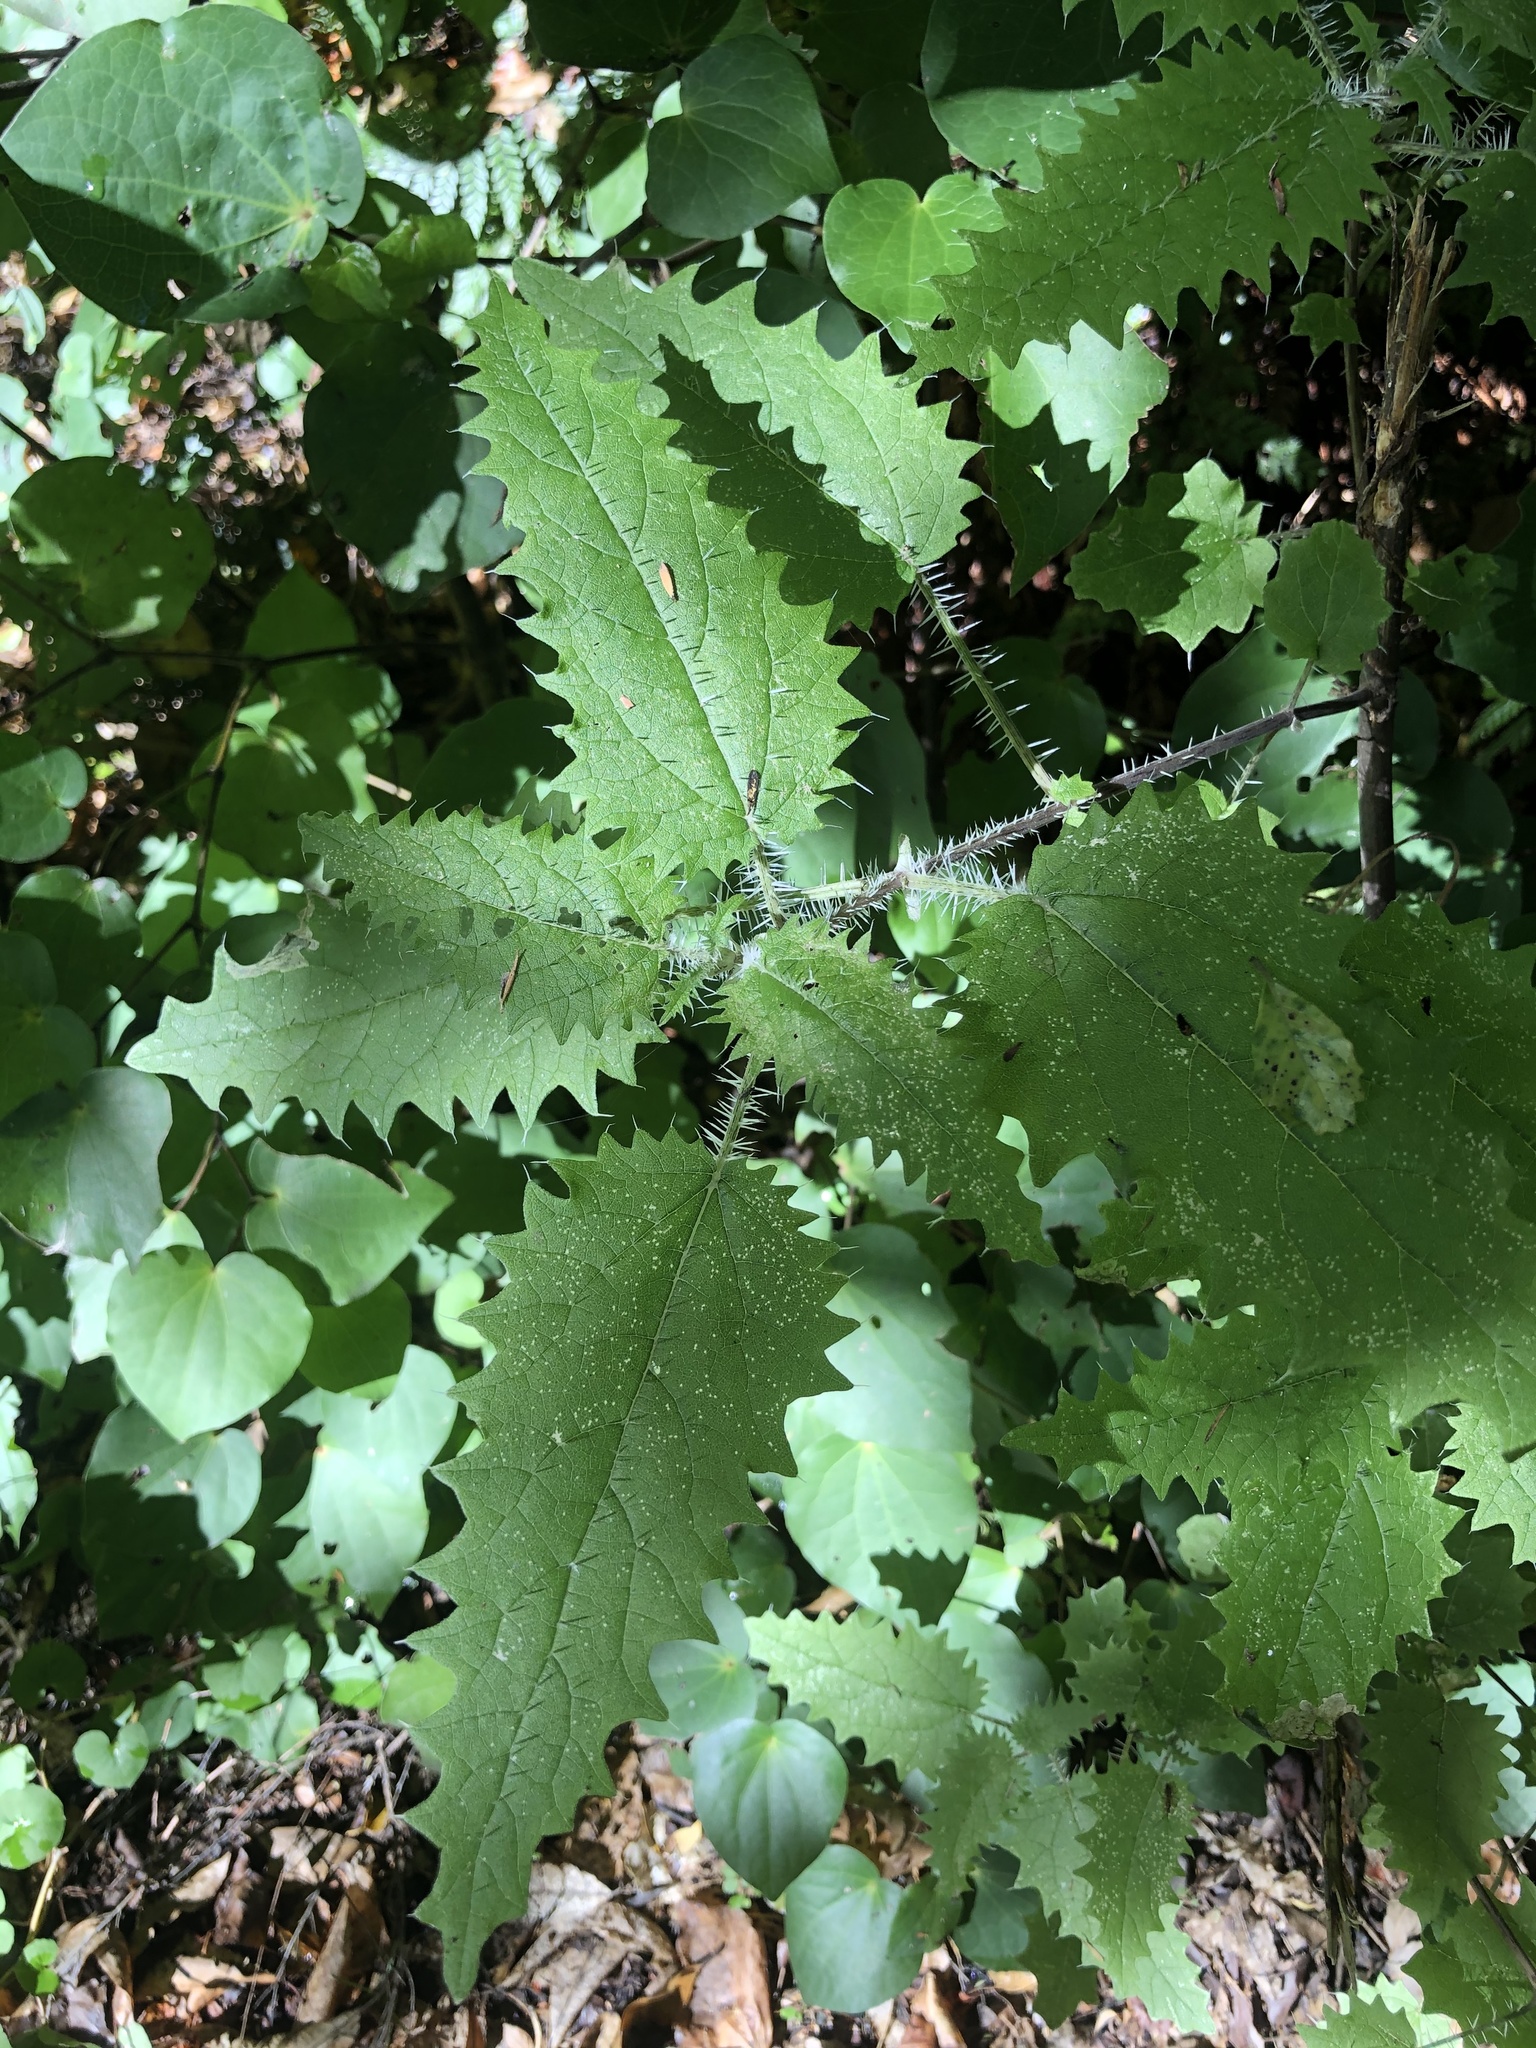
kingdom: Plantae
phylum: Tracheophyta
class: Magnoliopsida
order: Rosales
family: Urticaceae
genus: Urtica
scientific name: Urtica ferox
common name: Tree nettle
